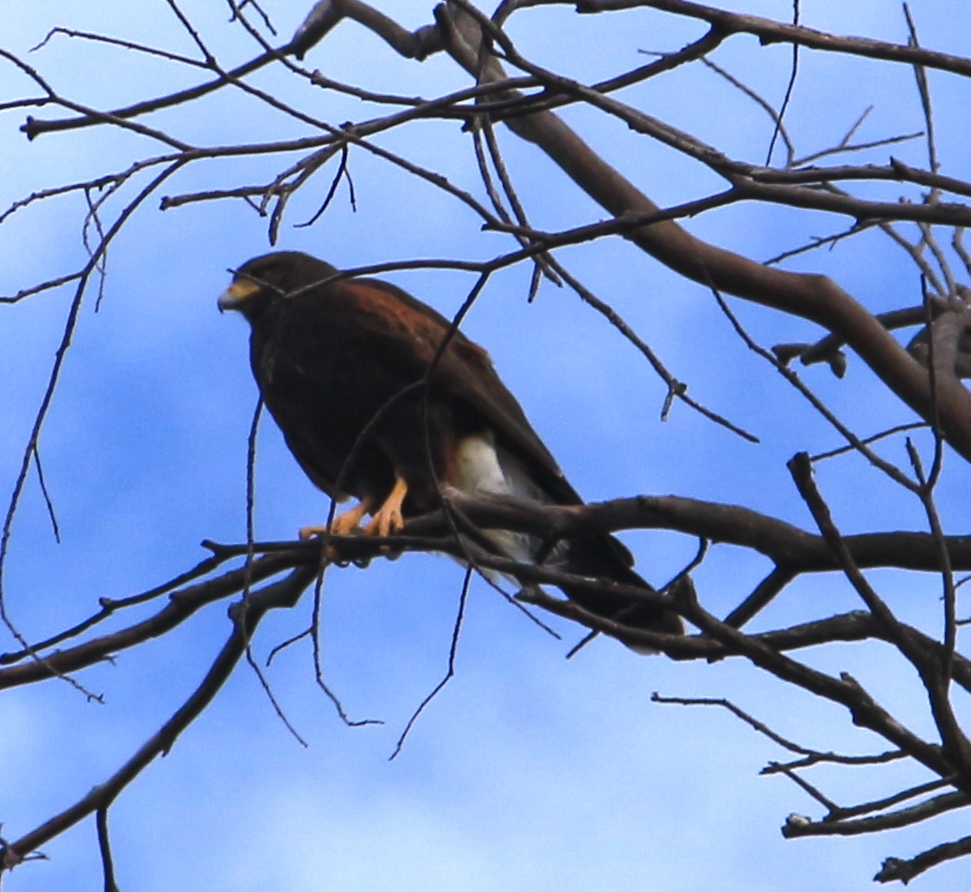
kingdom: Animalia
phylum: Chordata
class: Aves
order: Accipitriformes
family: Accipitridae
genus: Parabuteo
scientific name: Parabuteo unicinctus
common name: Harris's hawk
